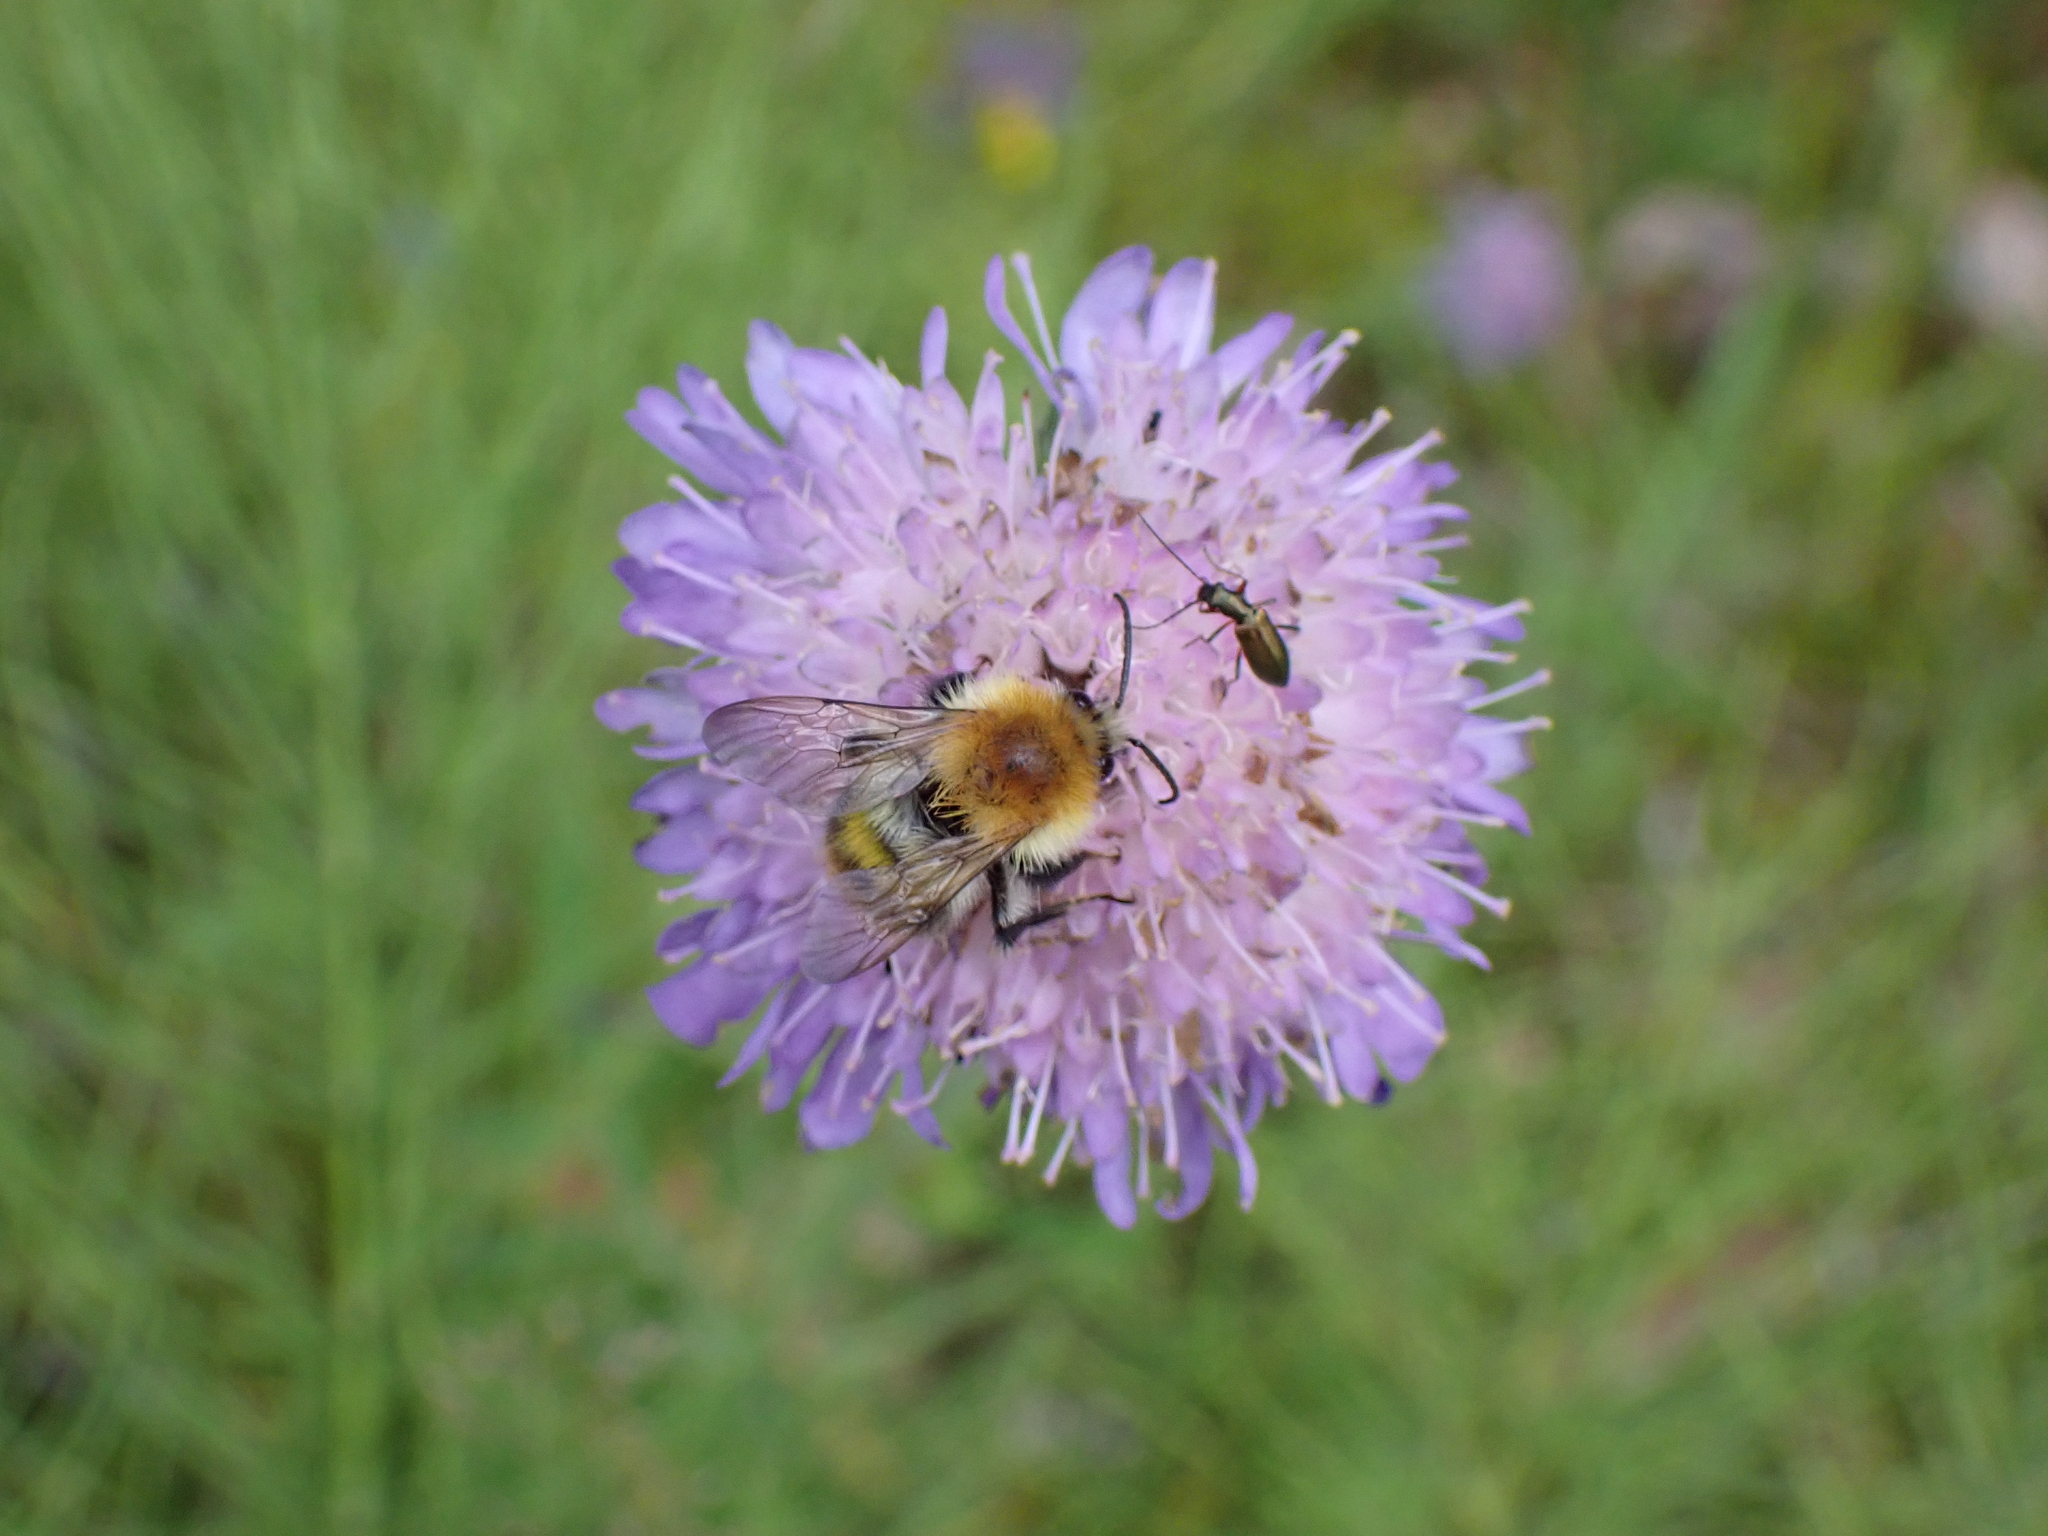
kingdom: Animalia
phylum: Arthropoda
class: Insecta
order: Hymenoptera
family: Apidae
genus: Bombus
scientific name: Bombus pascuorum
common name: Common carder bee
